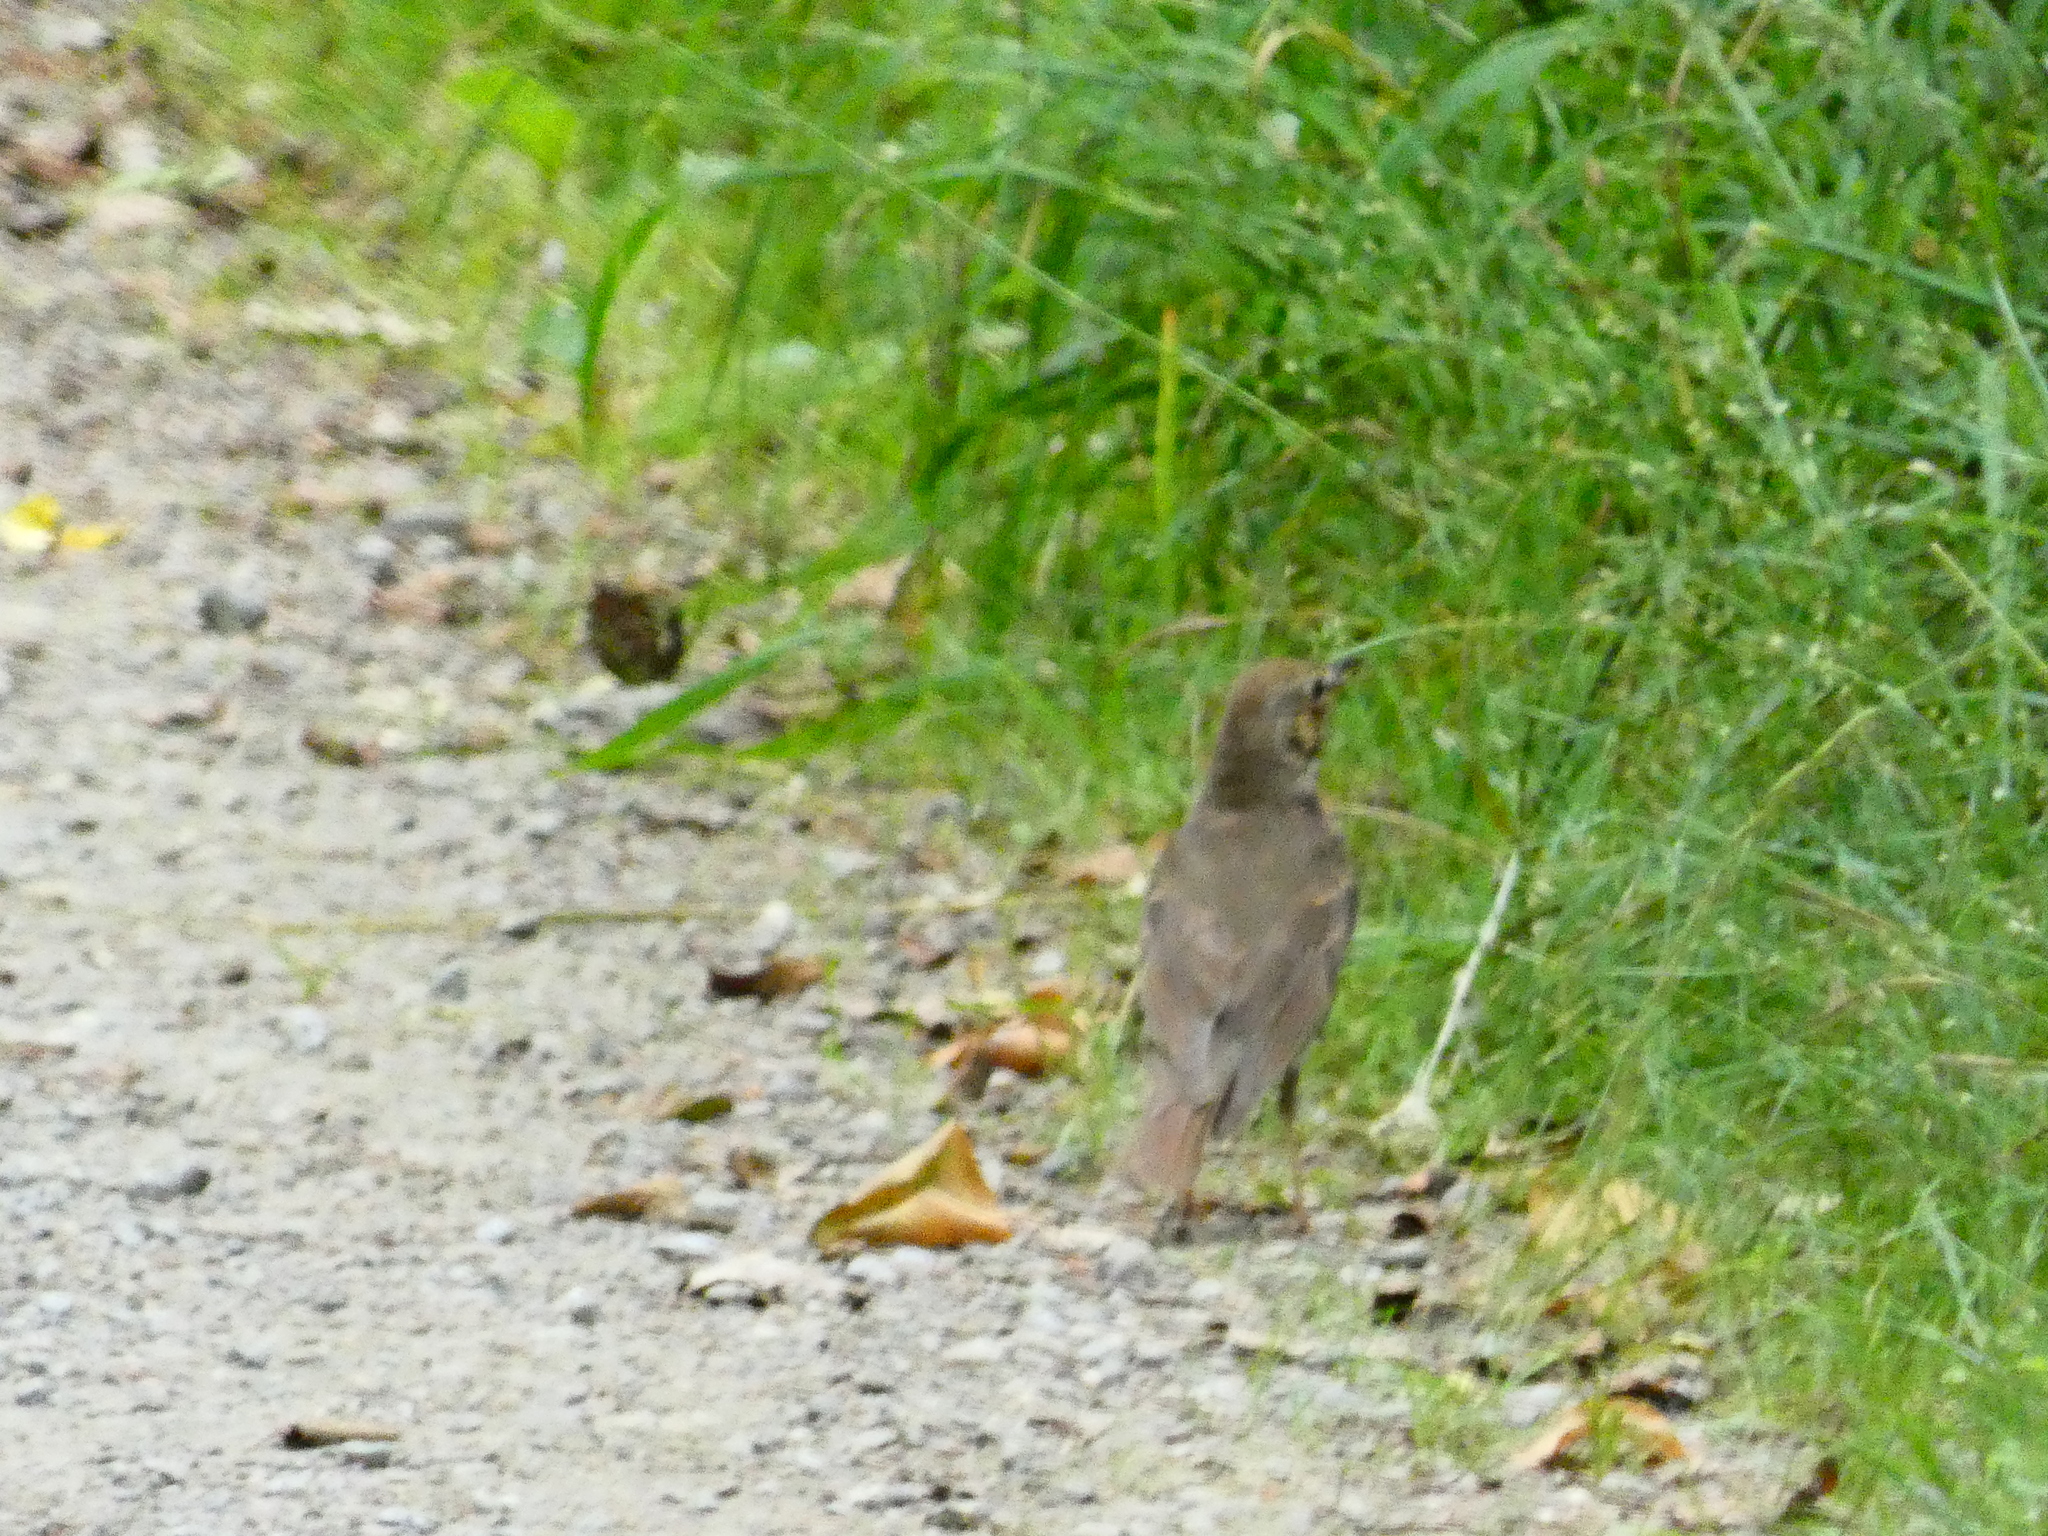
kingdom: Animalia
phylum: Chordata
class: Aves
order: Passeriformes
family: Turdidae
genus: Turdus
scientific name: Turdus philomelos
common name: Song thrush
